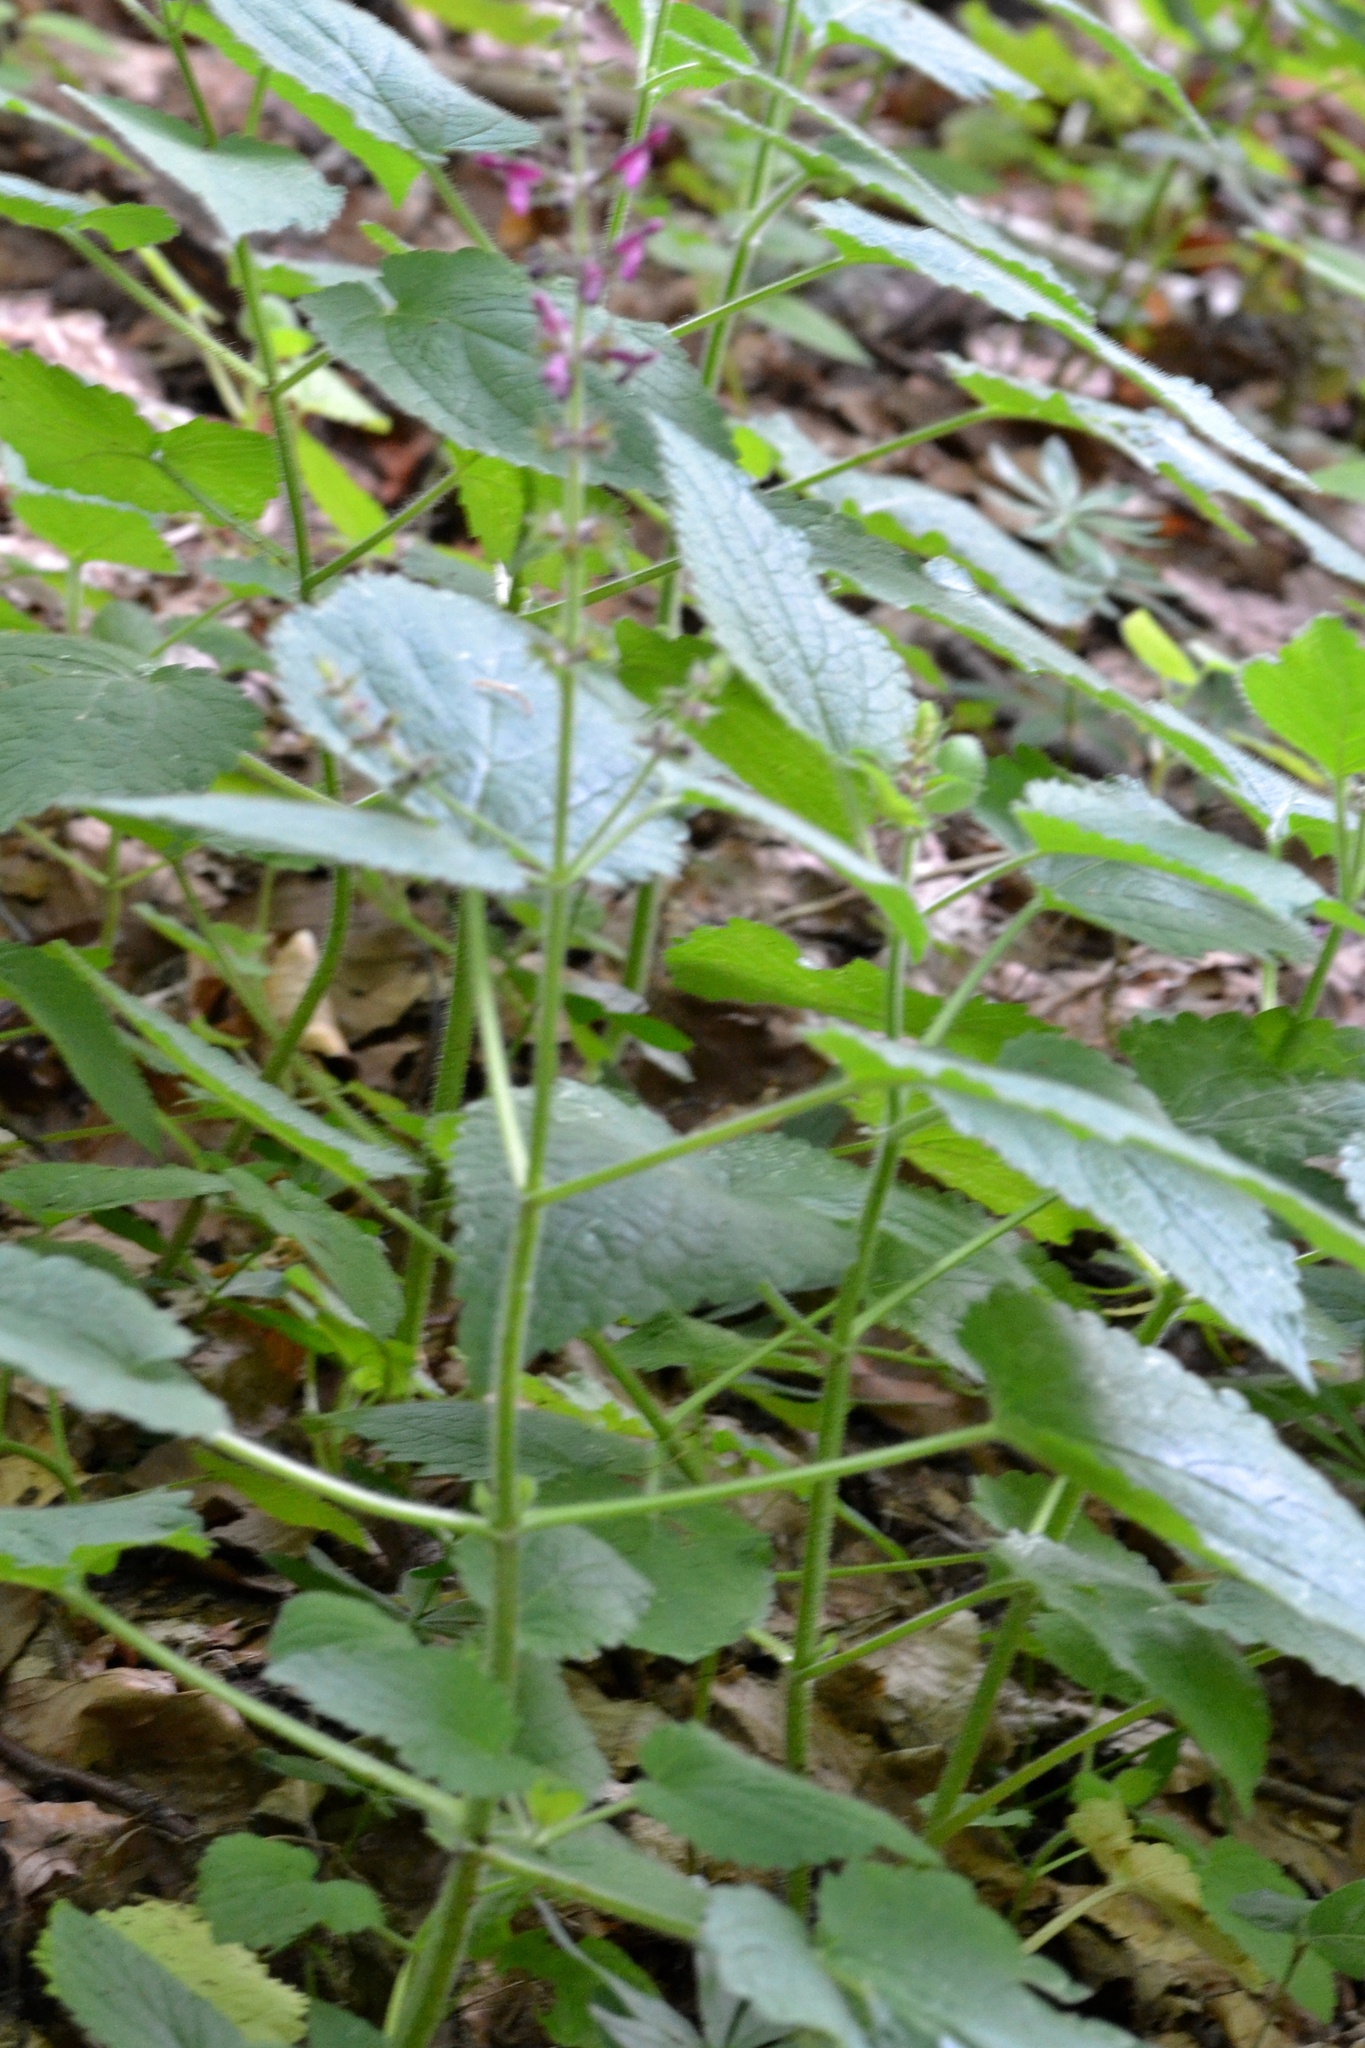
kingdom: Plantae
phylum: Tracheophyta
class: Magnoliopsida
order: Lamiales
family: Lamiaceae
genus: Stachys
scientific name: Stachys sylvatica
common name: Hedge woundwort
